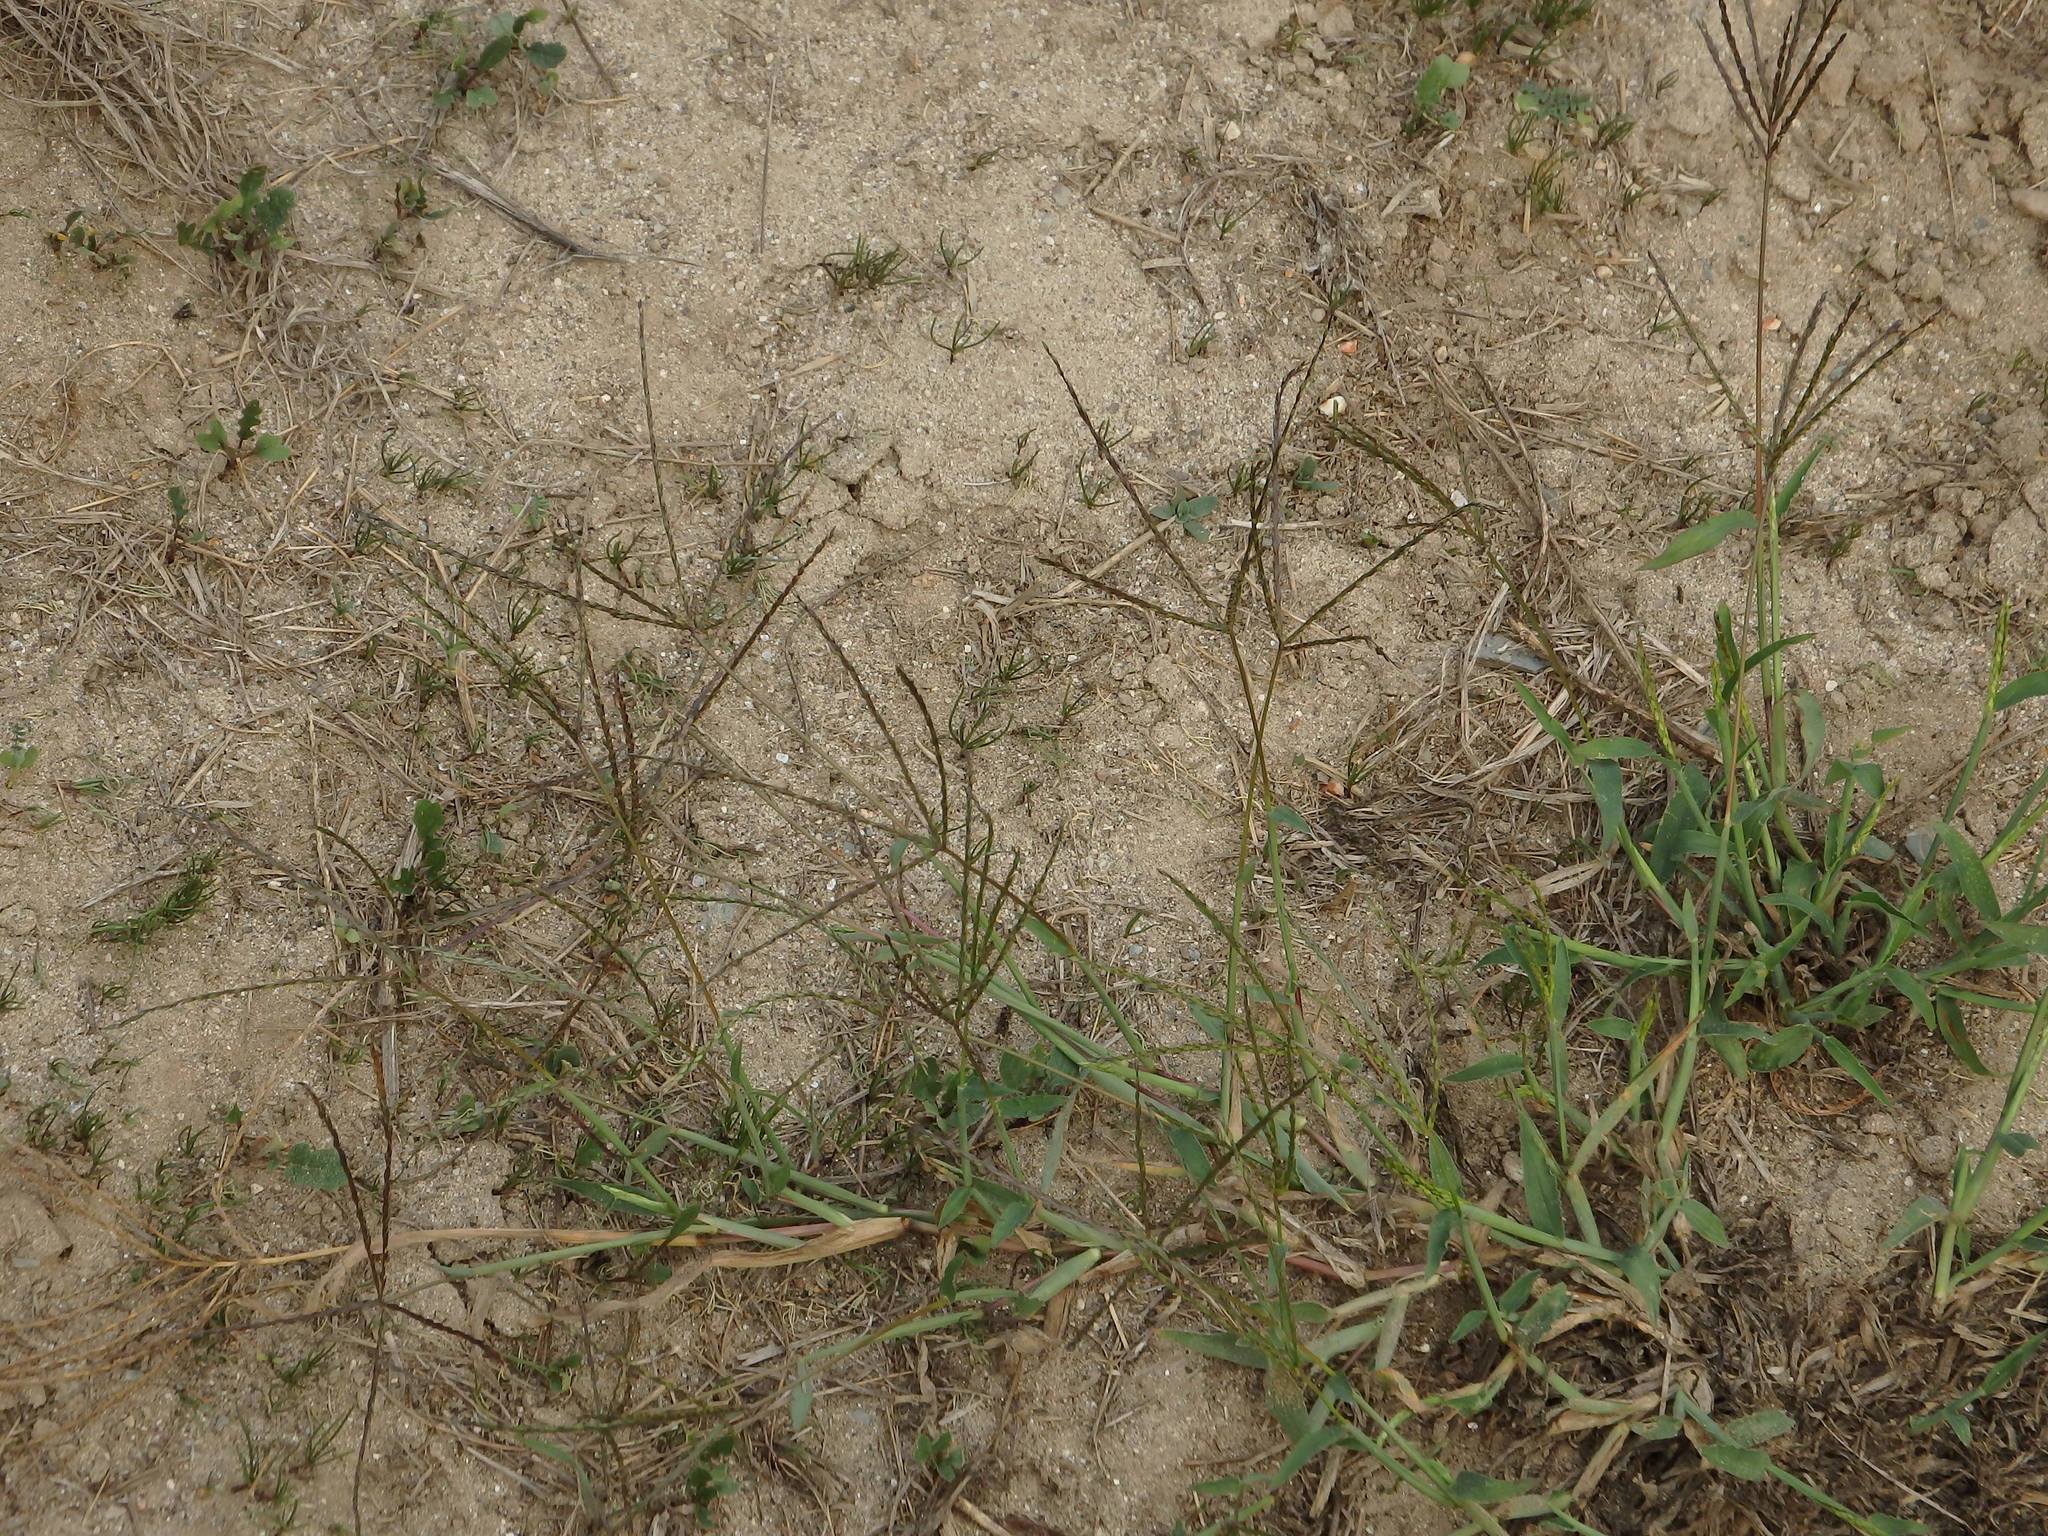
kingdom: Plantae
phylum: Tracheophyta
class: Liliopsida
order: Poales
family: Poaceae
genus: Cynodon
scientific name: Cynodon dactylon
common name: Bermuda grass
